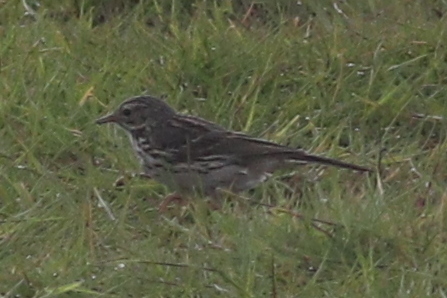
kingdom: Animalia
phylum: Chordata
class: Aves
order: Passeriformes
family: Motacillidae
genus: Anthus
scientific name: Anthus pratensis
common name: Meadow pipit
